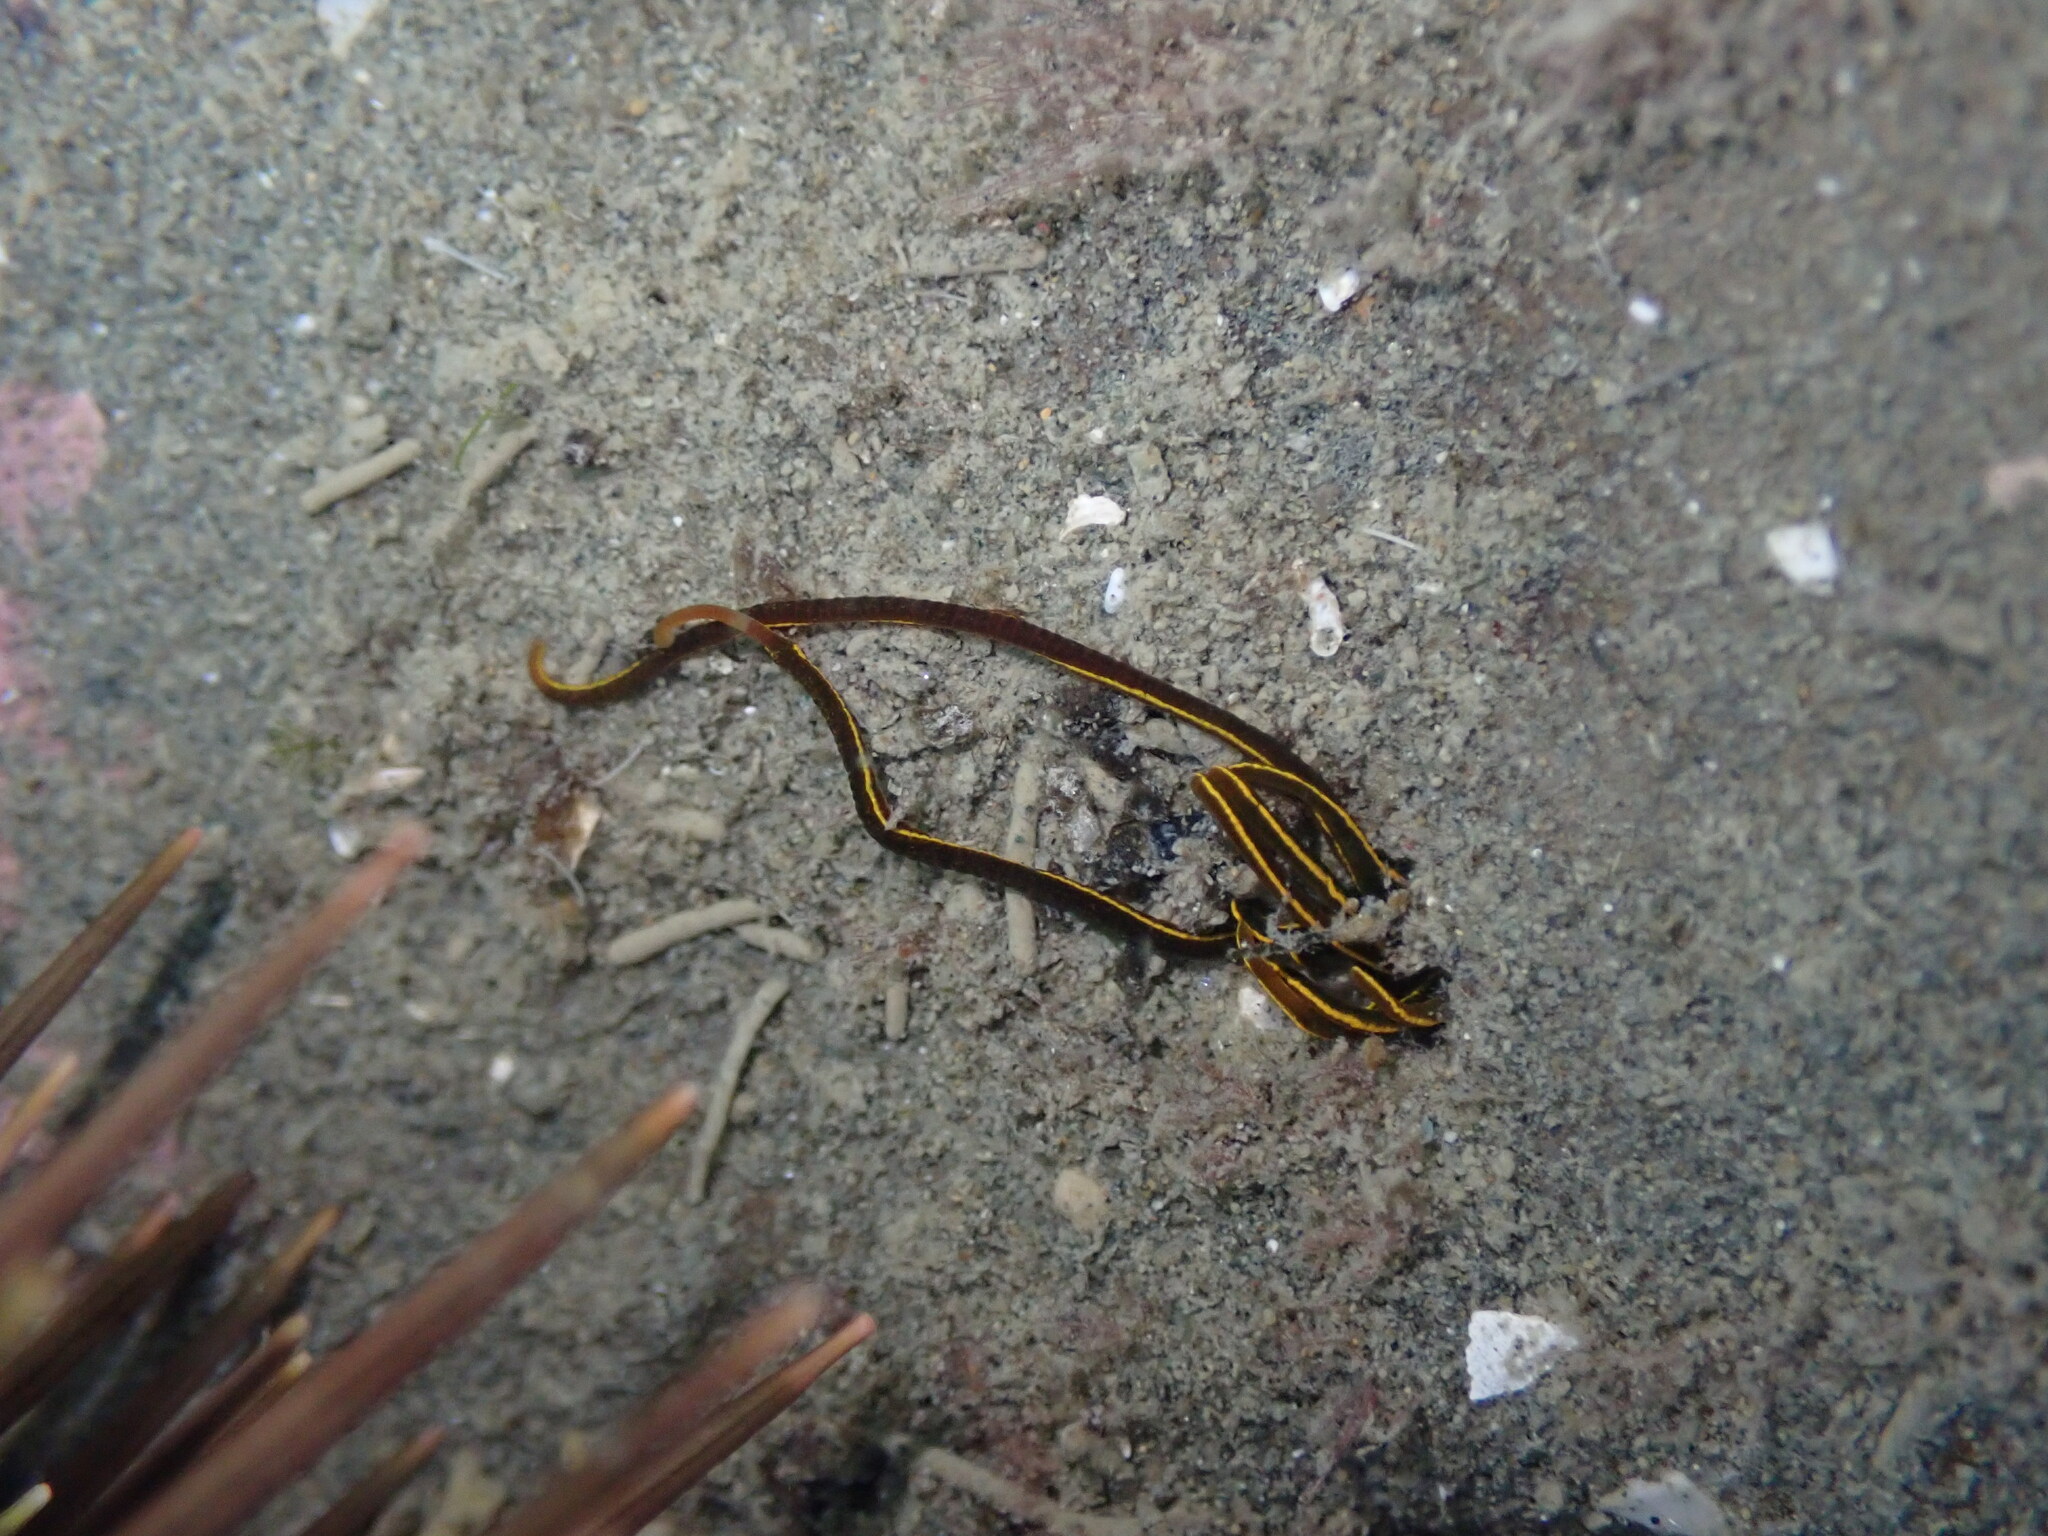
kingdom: Animalia
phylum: Annelida
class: Polychaeta
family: Acrocirridae
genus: Acrocirrus
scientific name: Acrocirrus
